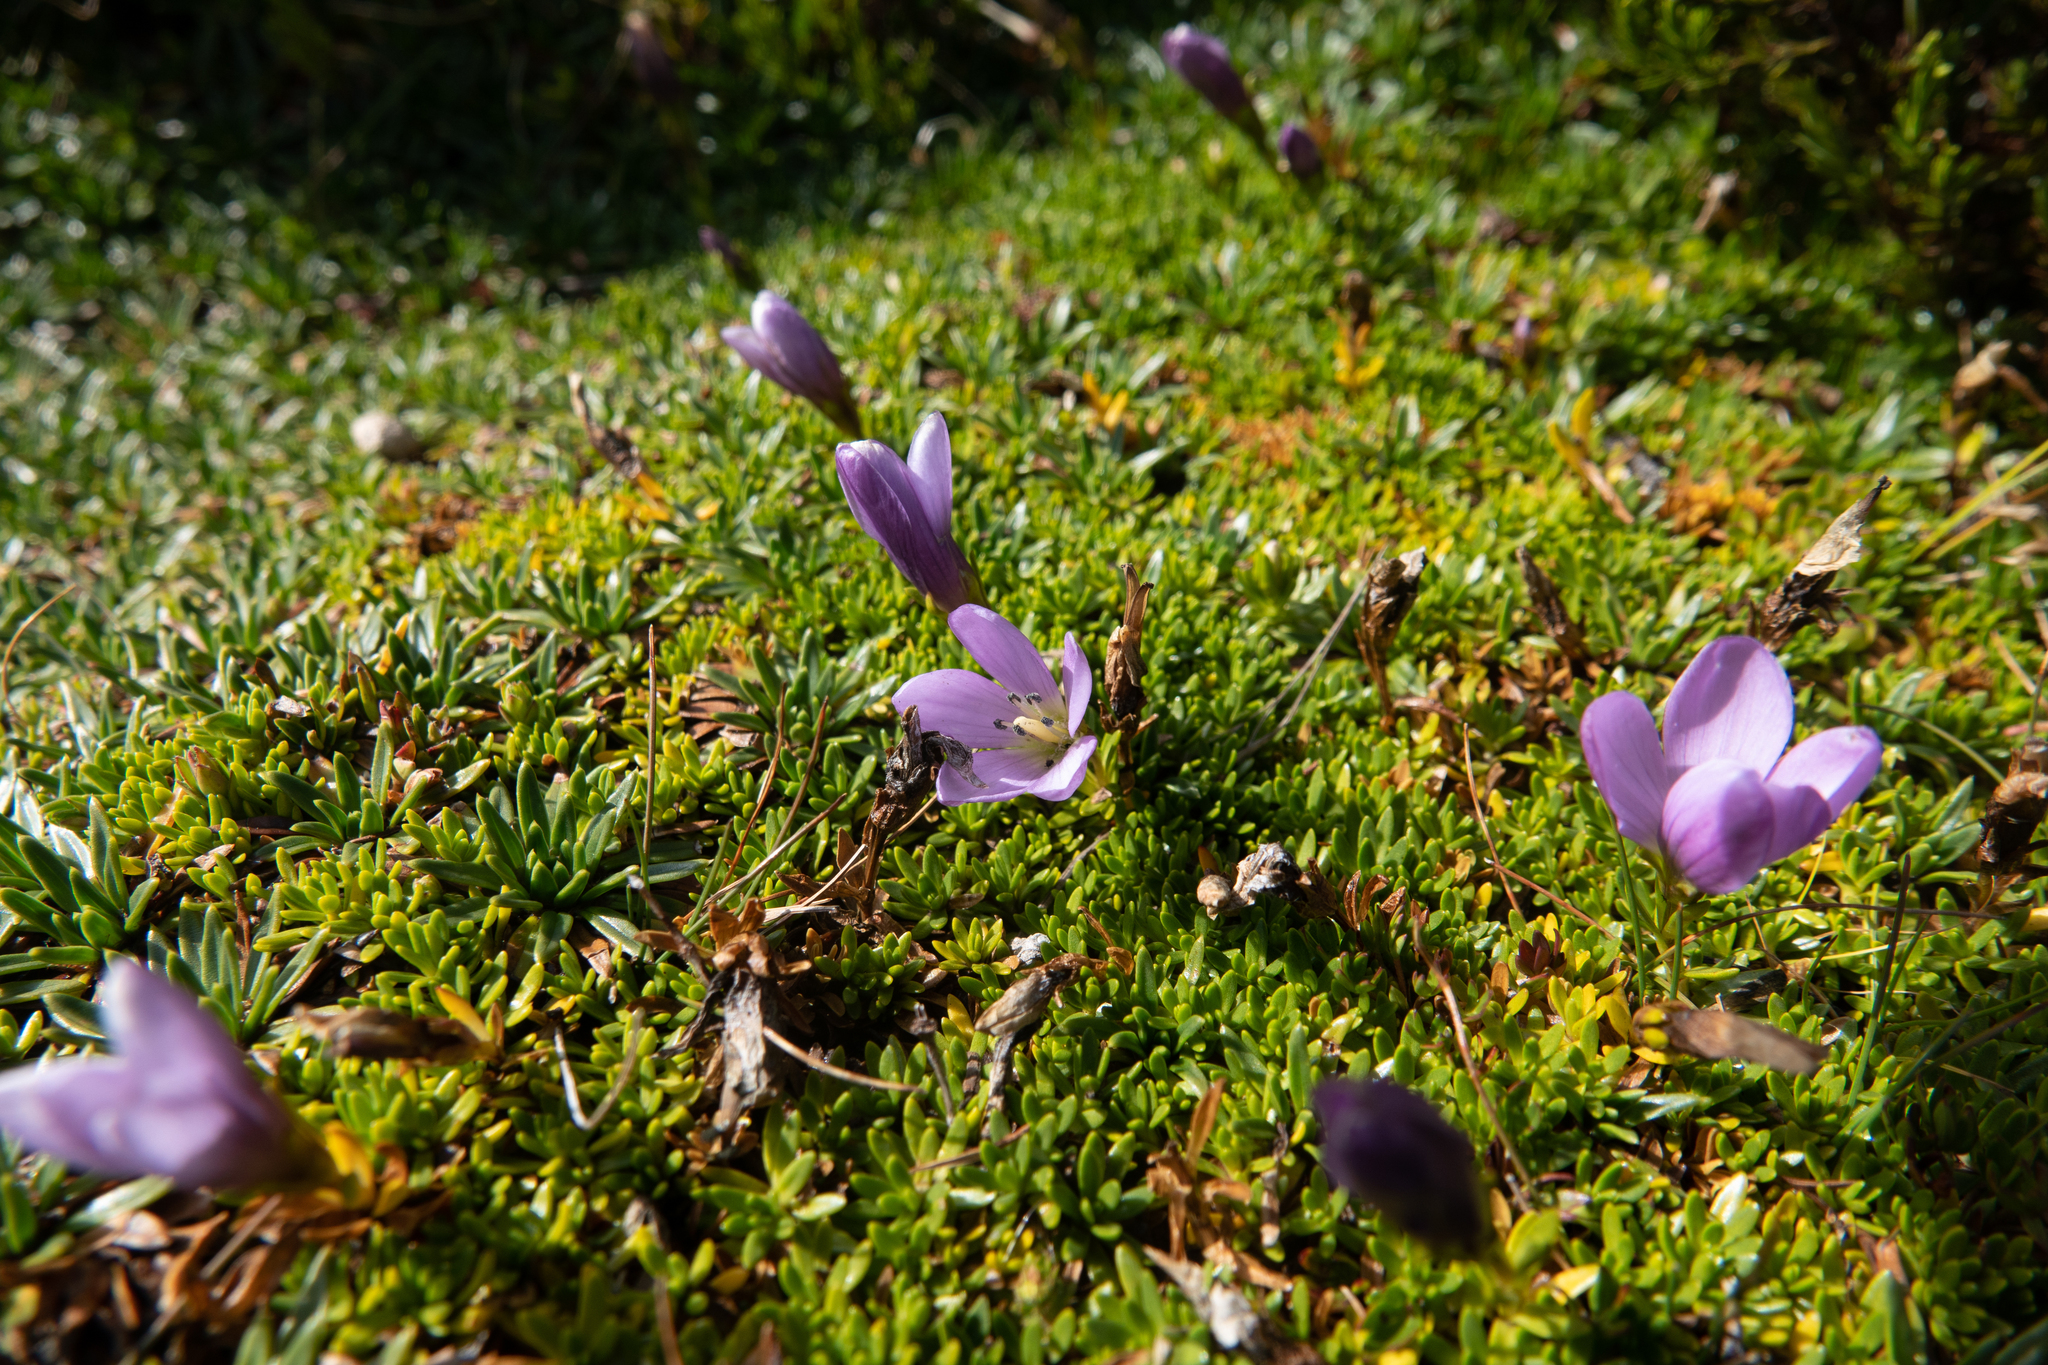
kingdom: Plantae
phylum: Tracheophyta
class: Magnoliopsida
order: Gentianales
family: Gentianaceae
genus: Gentianella
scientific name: Gentianella cerastioides
